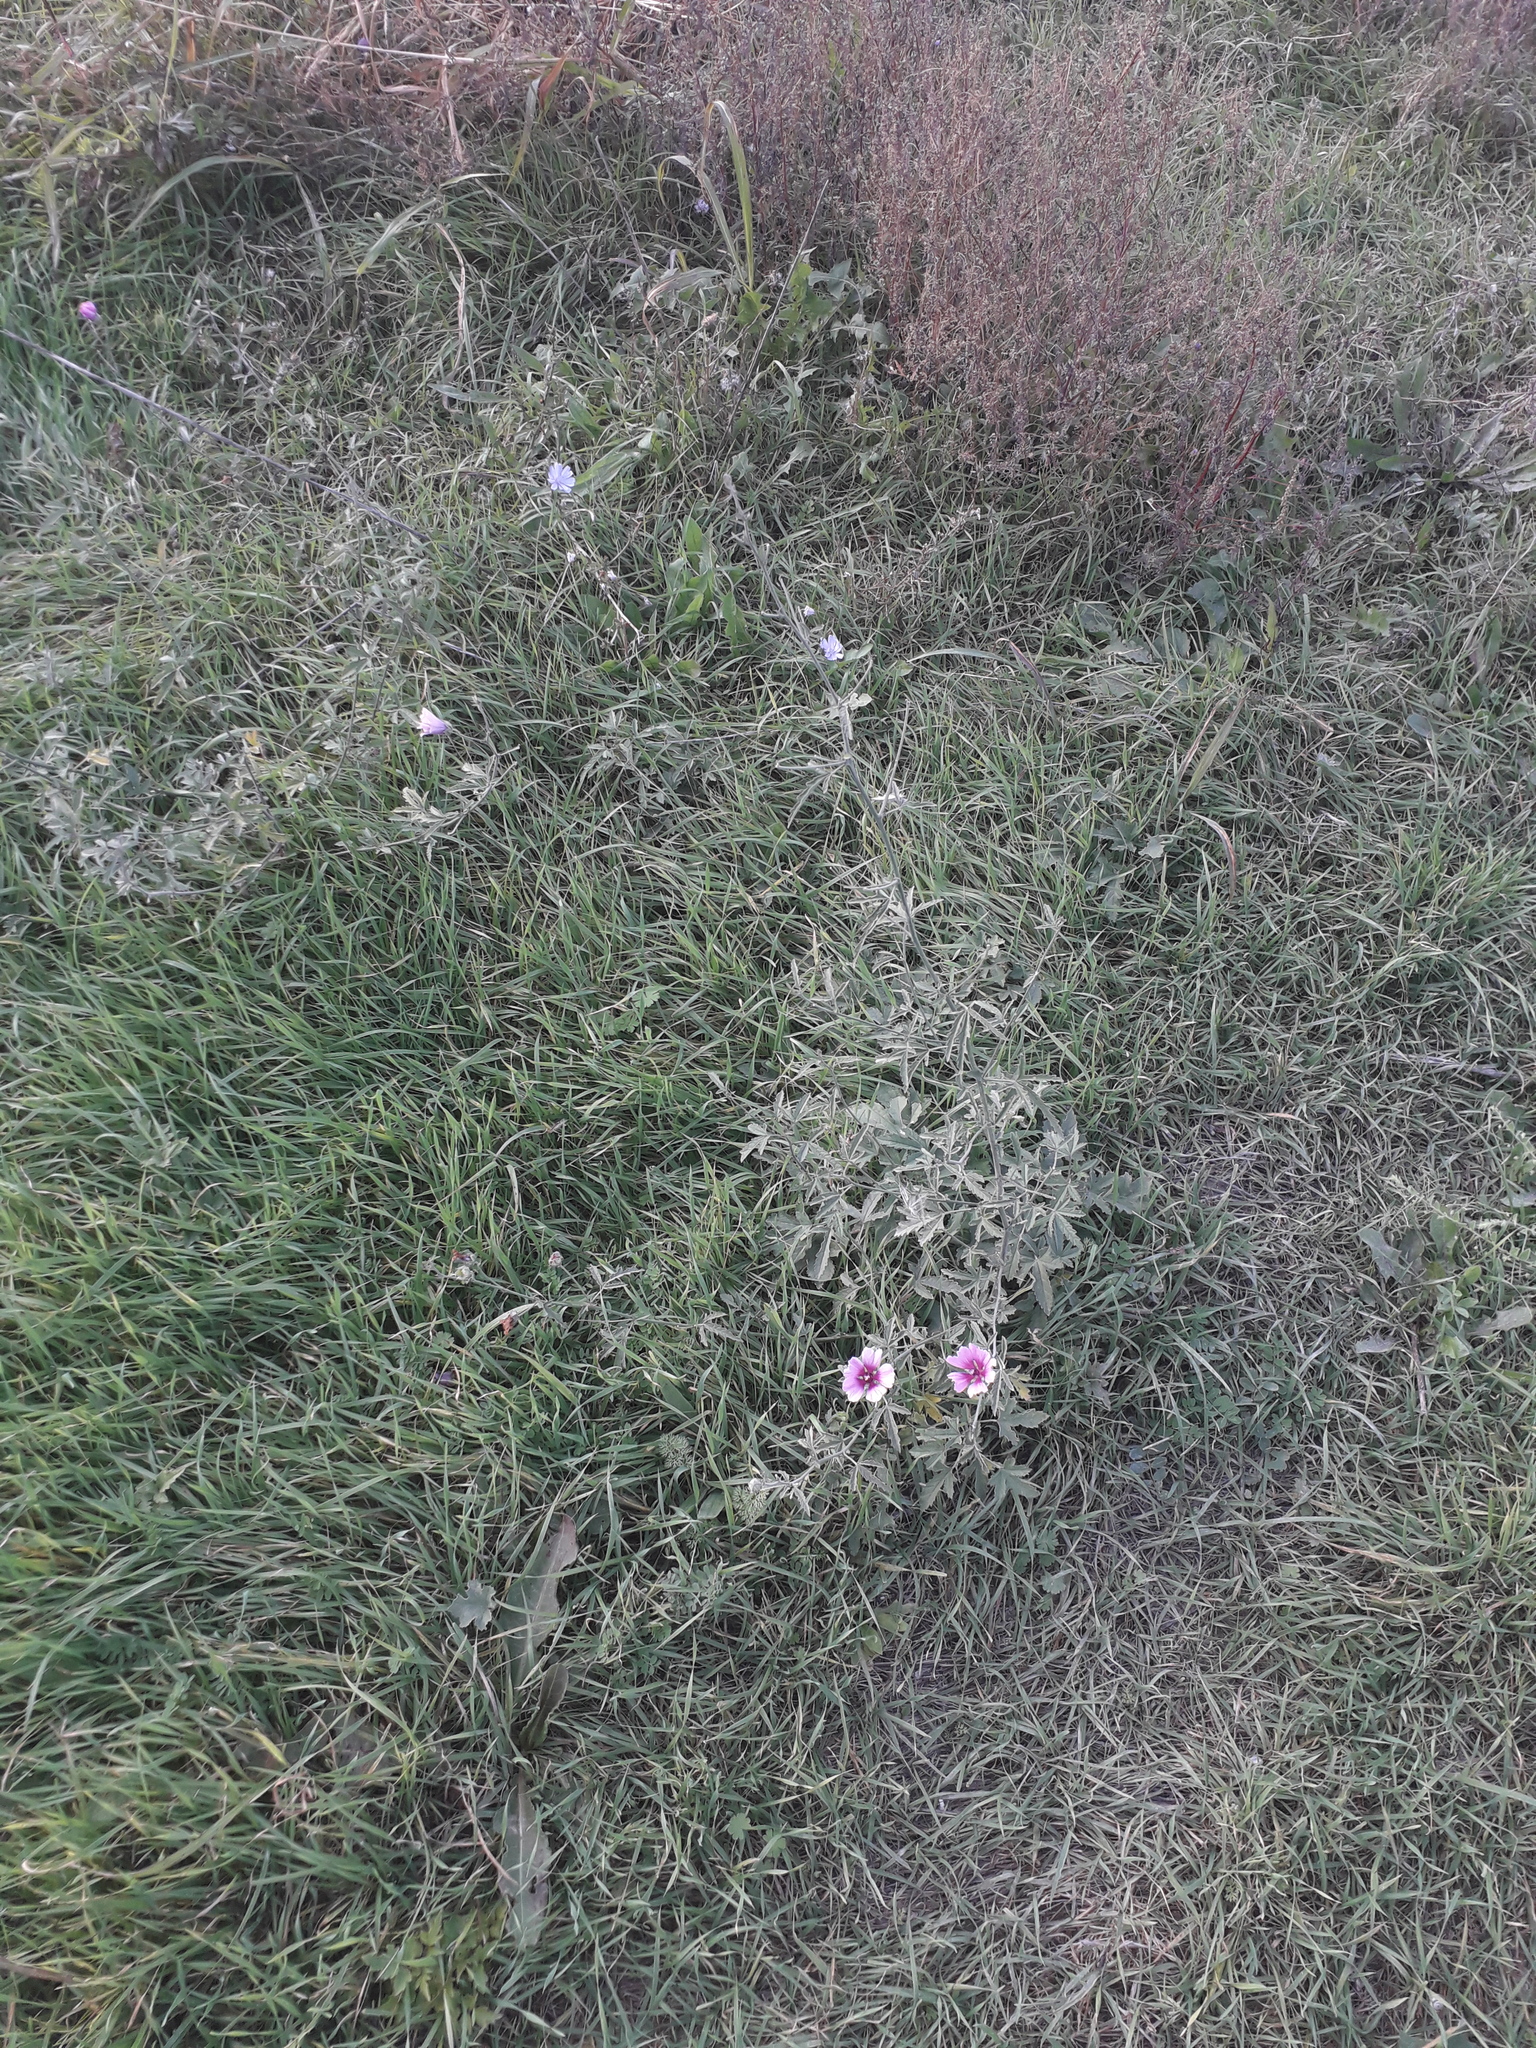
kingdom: Plantae
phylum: Tracheophyta
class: Magnoliopsida
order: Malvales
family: Malvaceae
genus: Althaea
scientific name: Althaea cannabina
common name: Palm-leaf marshmallow
